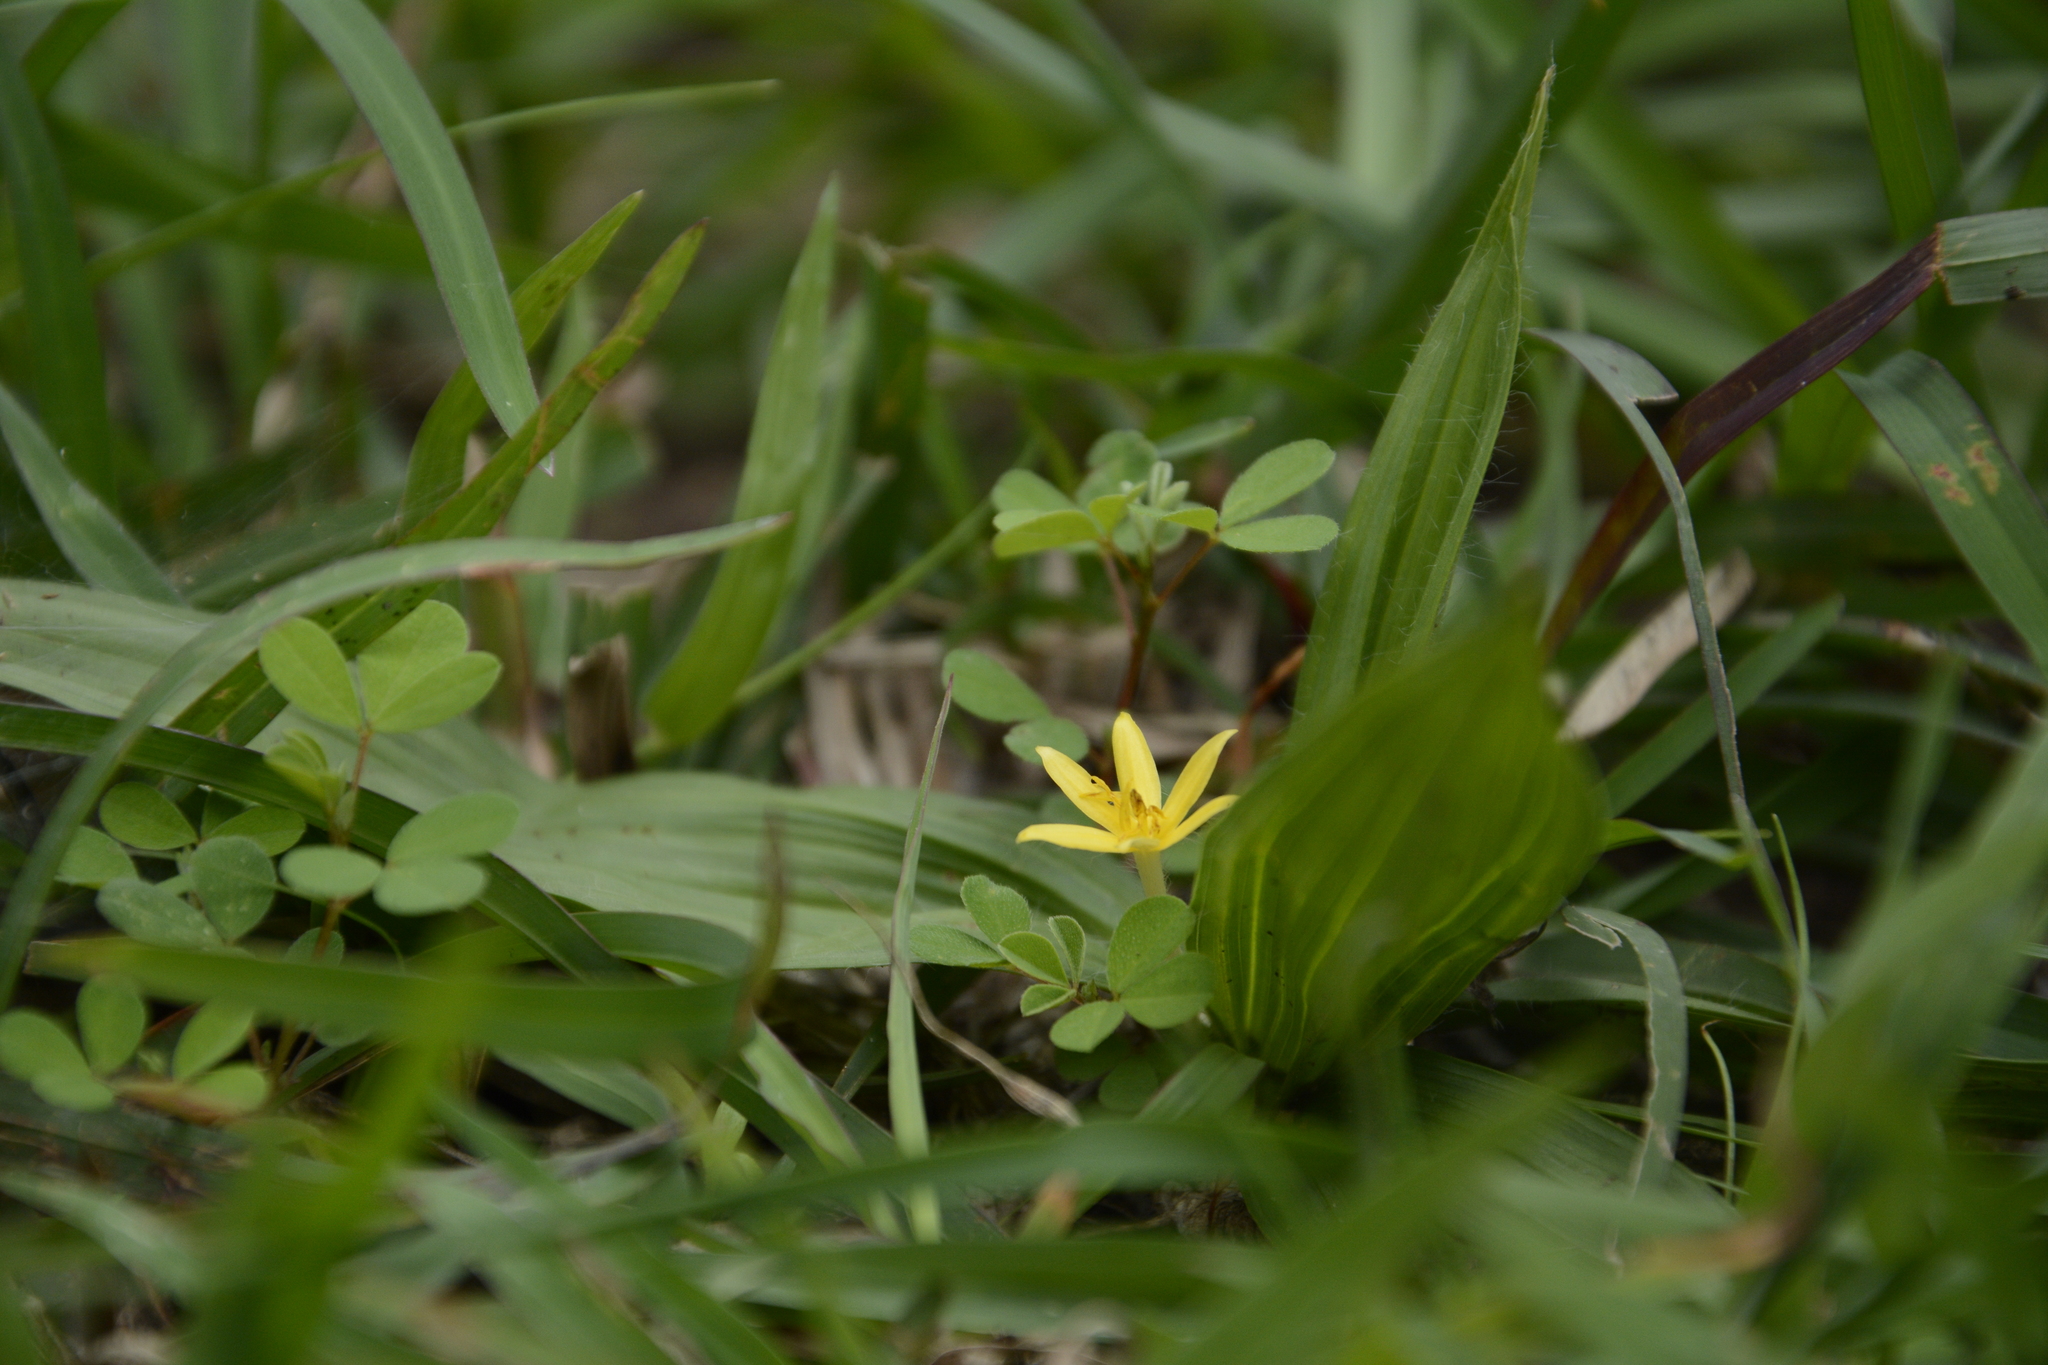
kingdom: Plantae
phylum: Tracheophyta
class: Liliopsida
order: Asparagales
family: Hypoxidaceae
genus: Curculigo
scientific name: Curculigo orchioides
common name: Golden eye-grass
